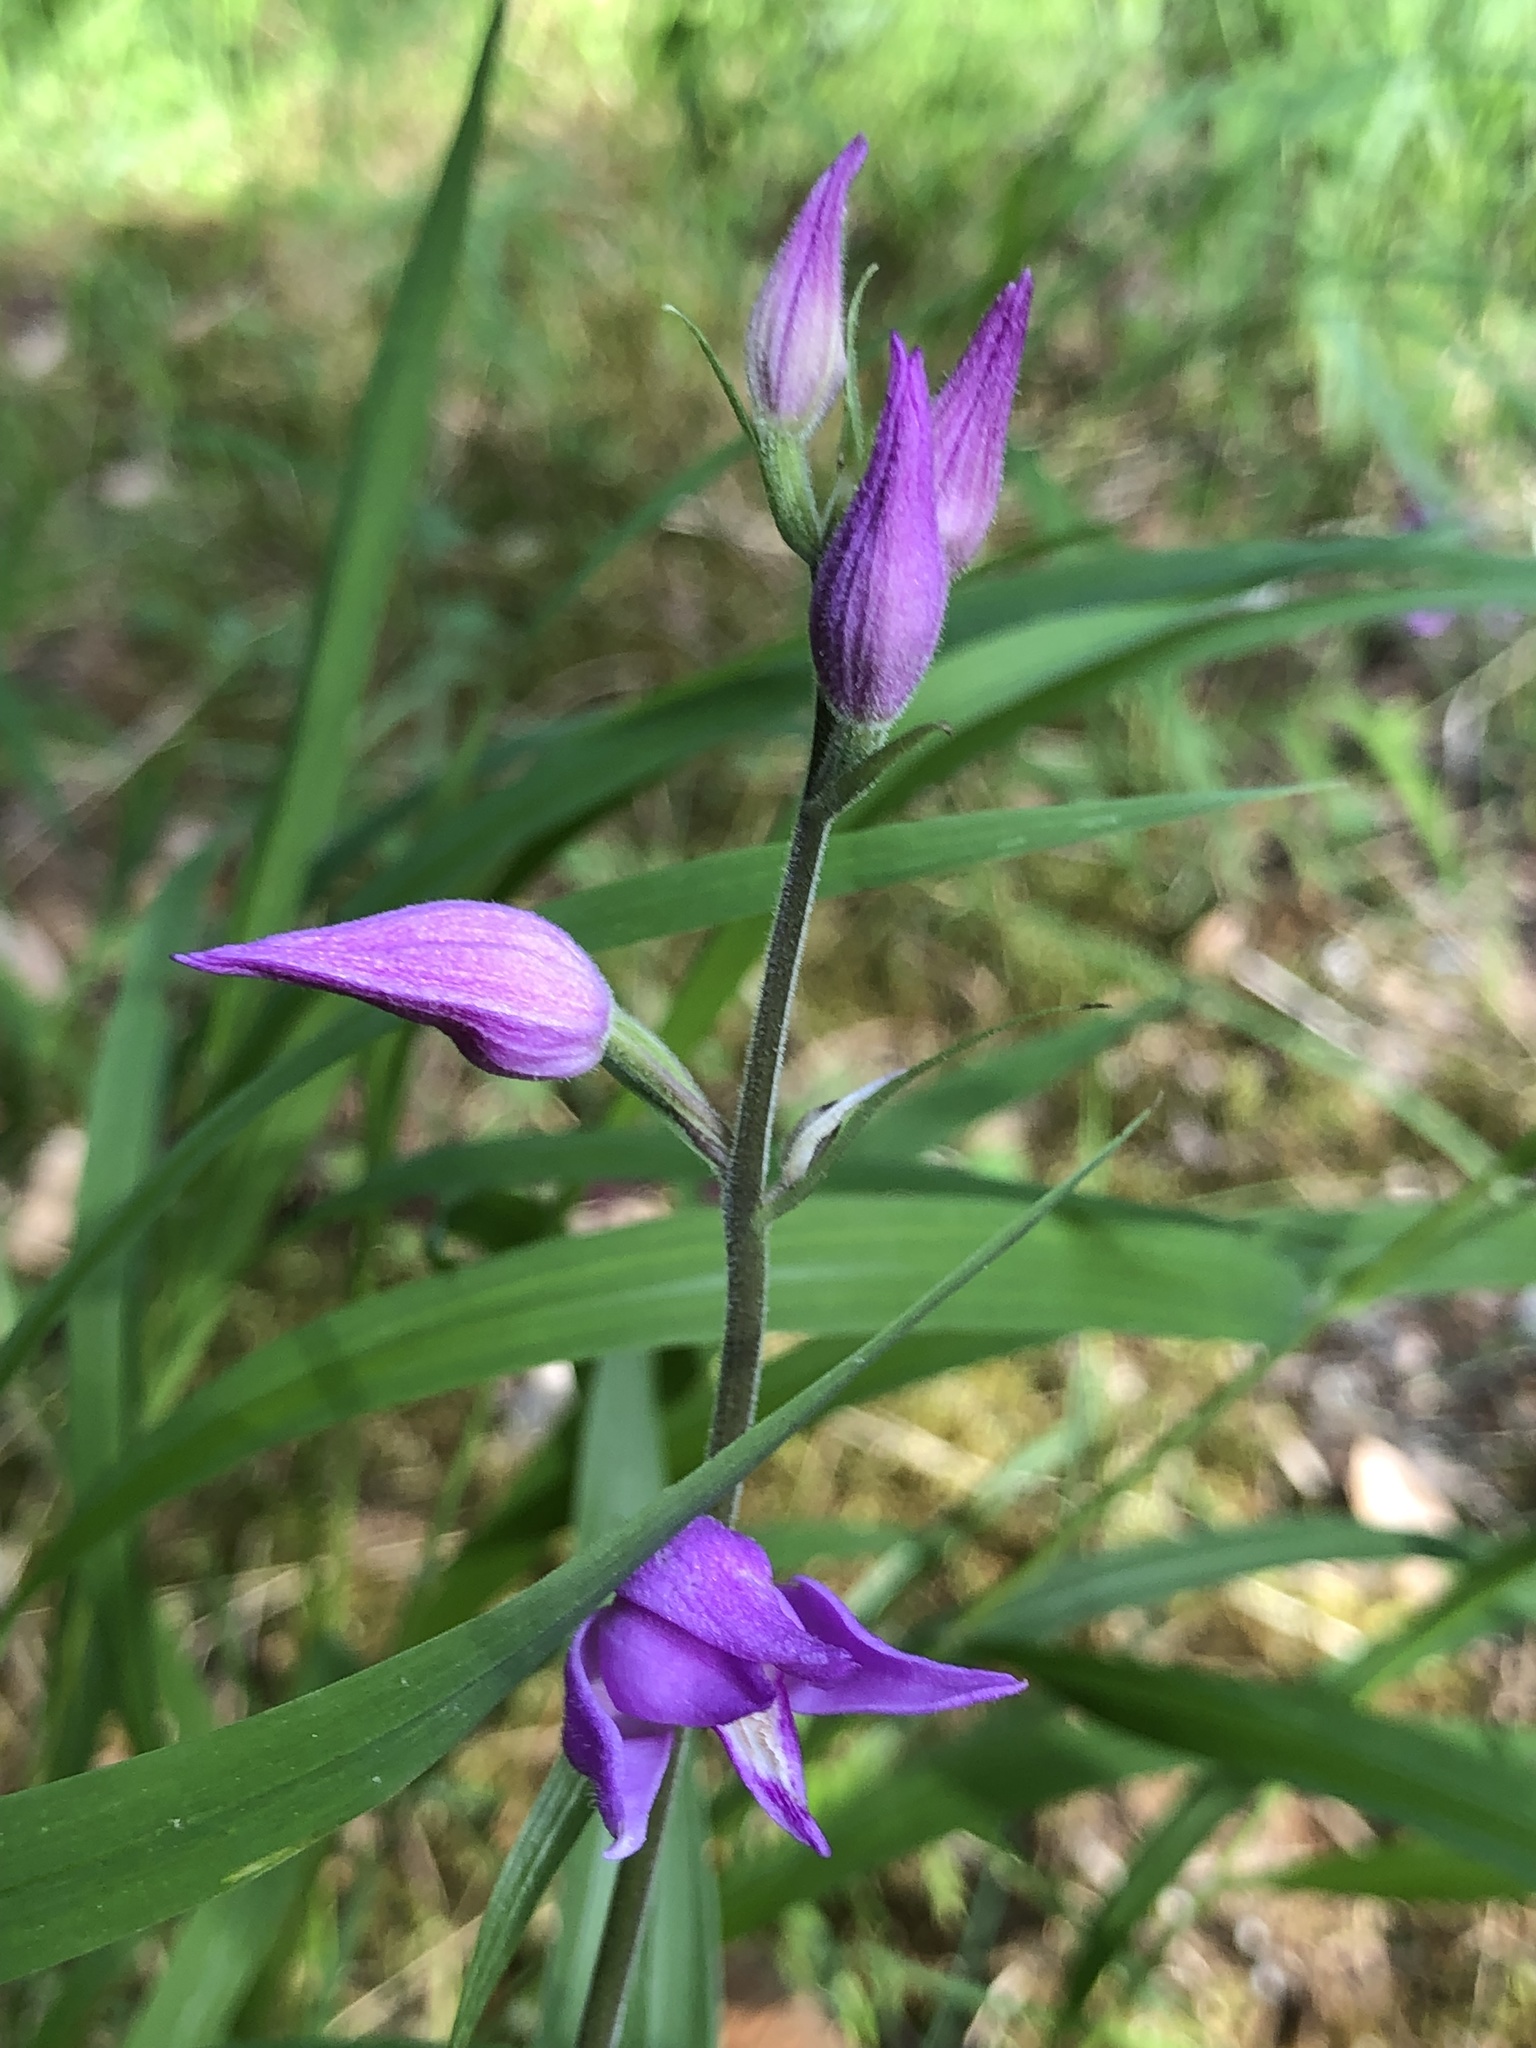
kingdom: Plantae
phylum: Tracheophyta
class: Liliopsida
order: Asparagales
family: Orchidaceae
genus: Cephalanthera
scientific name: Cephalanthera rubra
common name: Red helleborine
